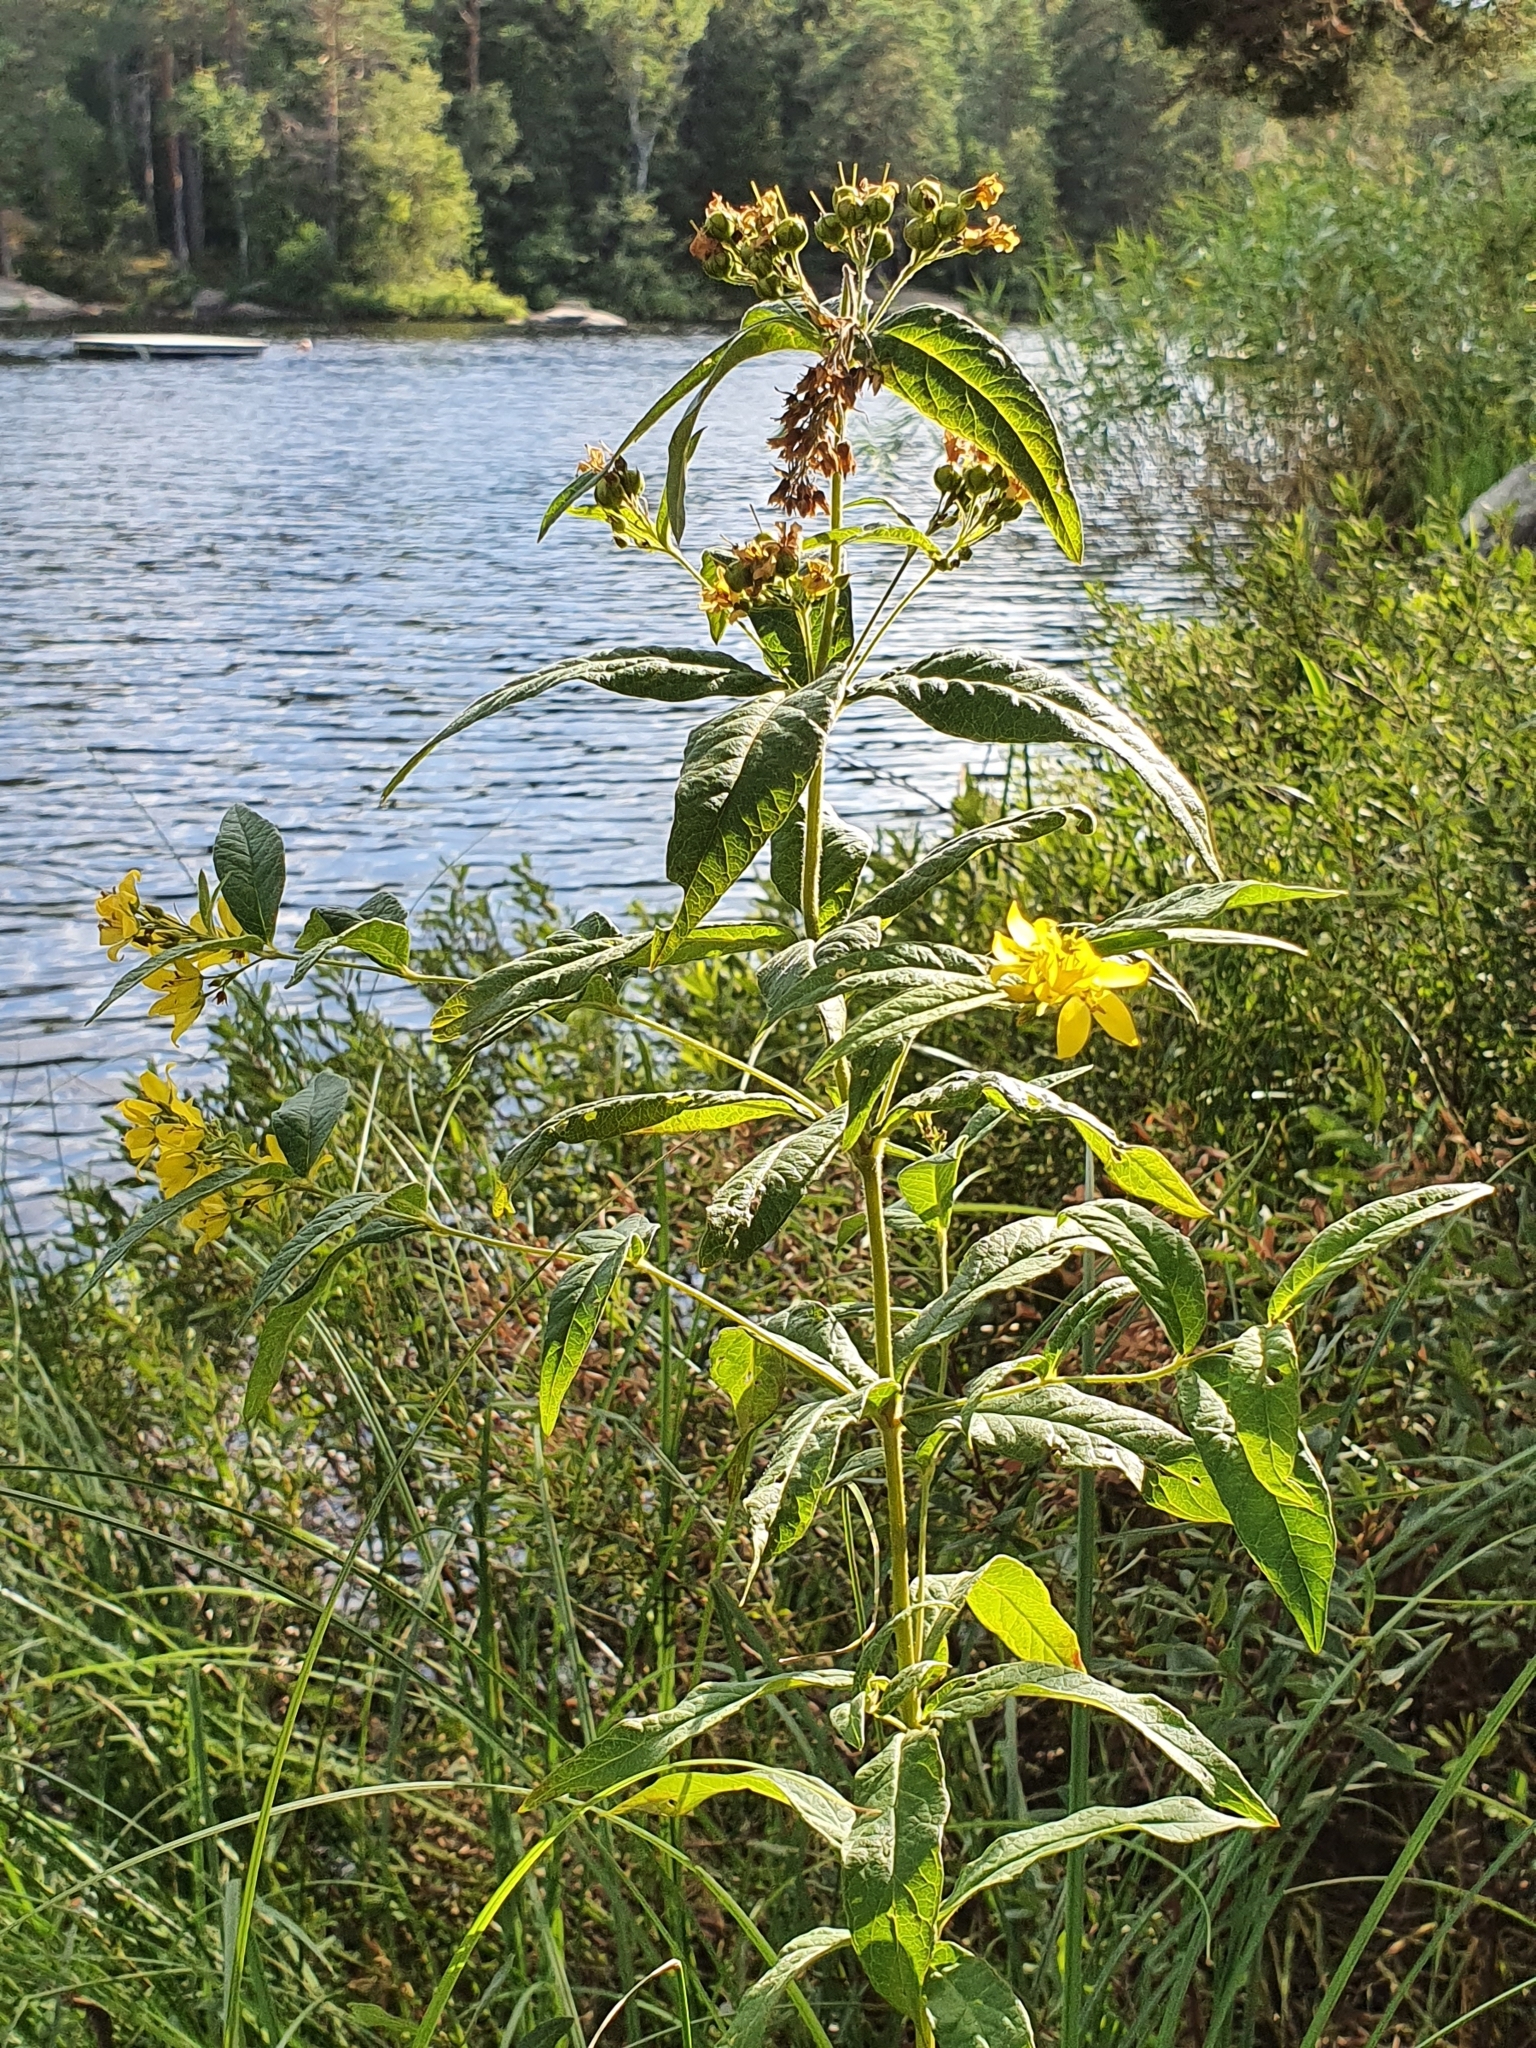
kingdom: Plantae
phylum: Tracheophyta
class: Magnoliopsida
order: Ericales
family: Primulaceae
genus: Lysimachia
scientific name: Lysimachia vulgaris
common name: Yellow loosestrife
